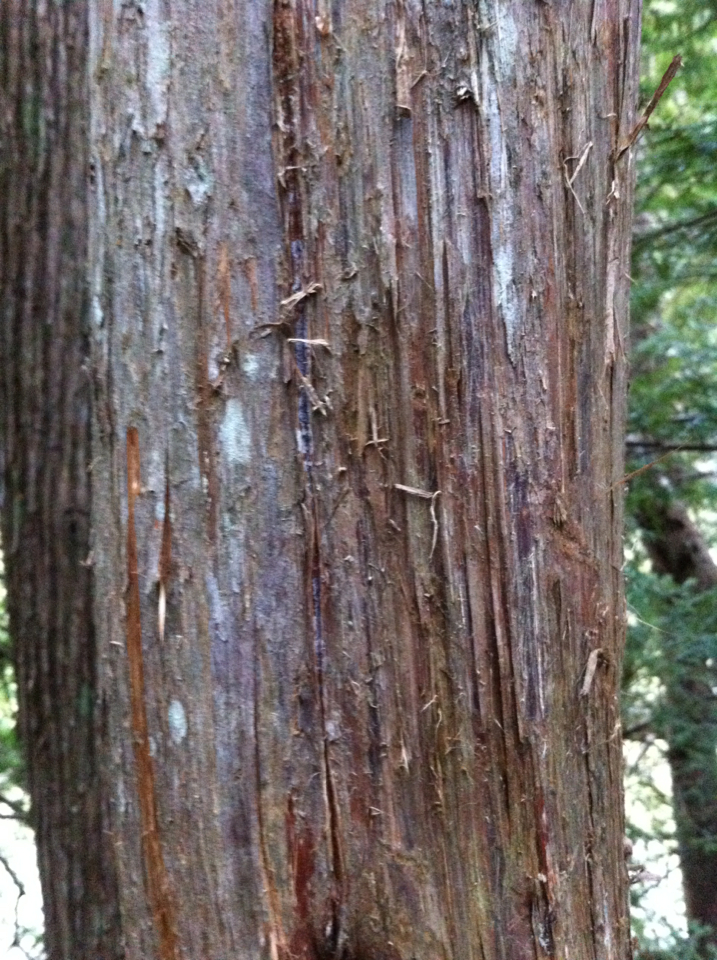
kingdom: Plantae
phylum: Tracheophyta
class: Pinopsida
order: Pinales
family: Cupressaceae
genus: Thuja
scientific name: Thuja occidentalis
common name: Northern white-cedar
